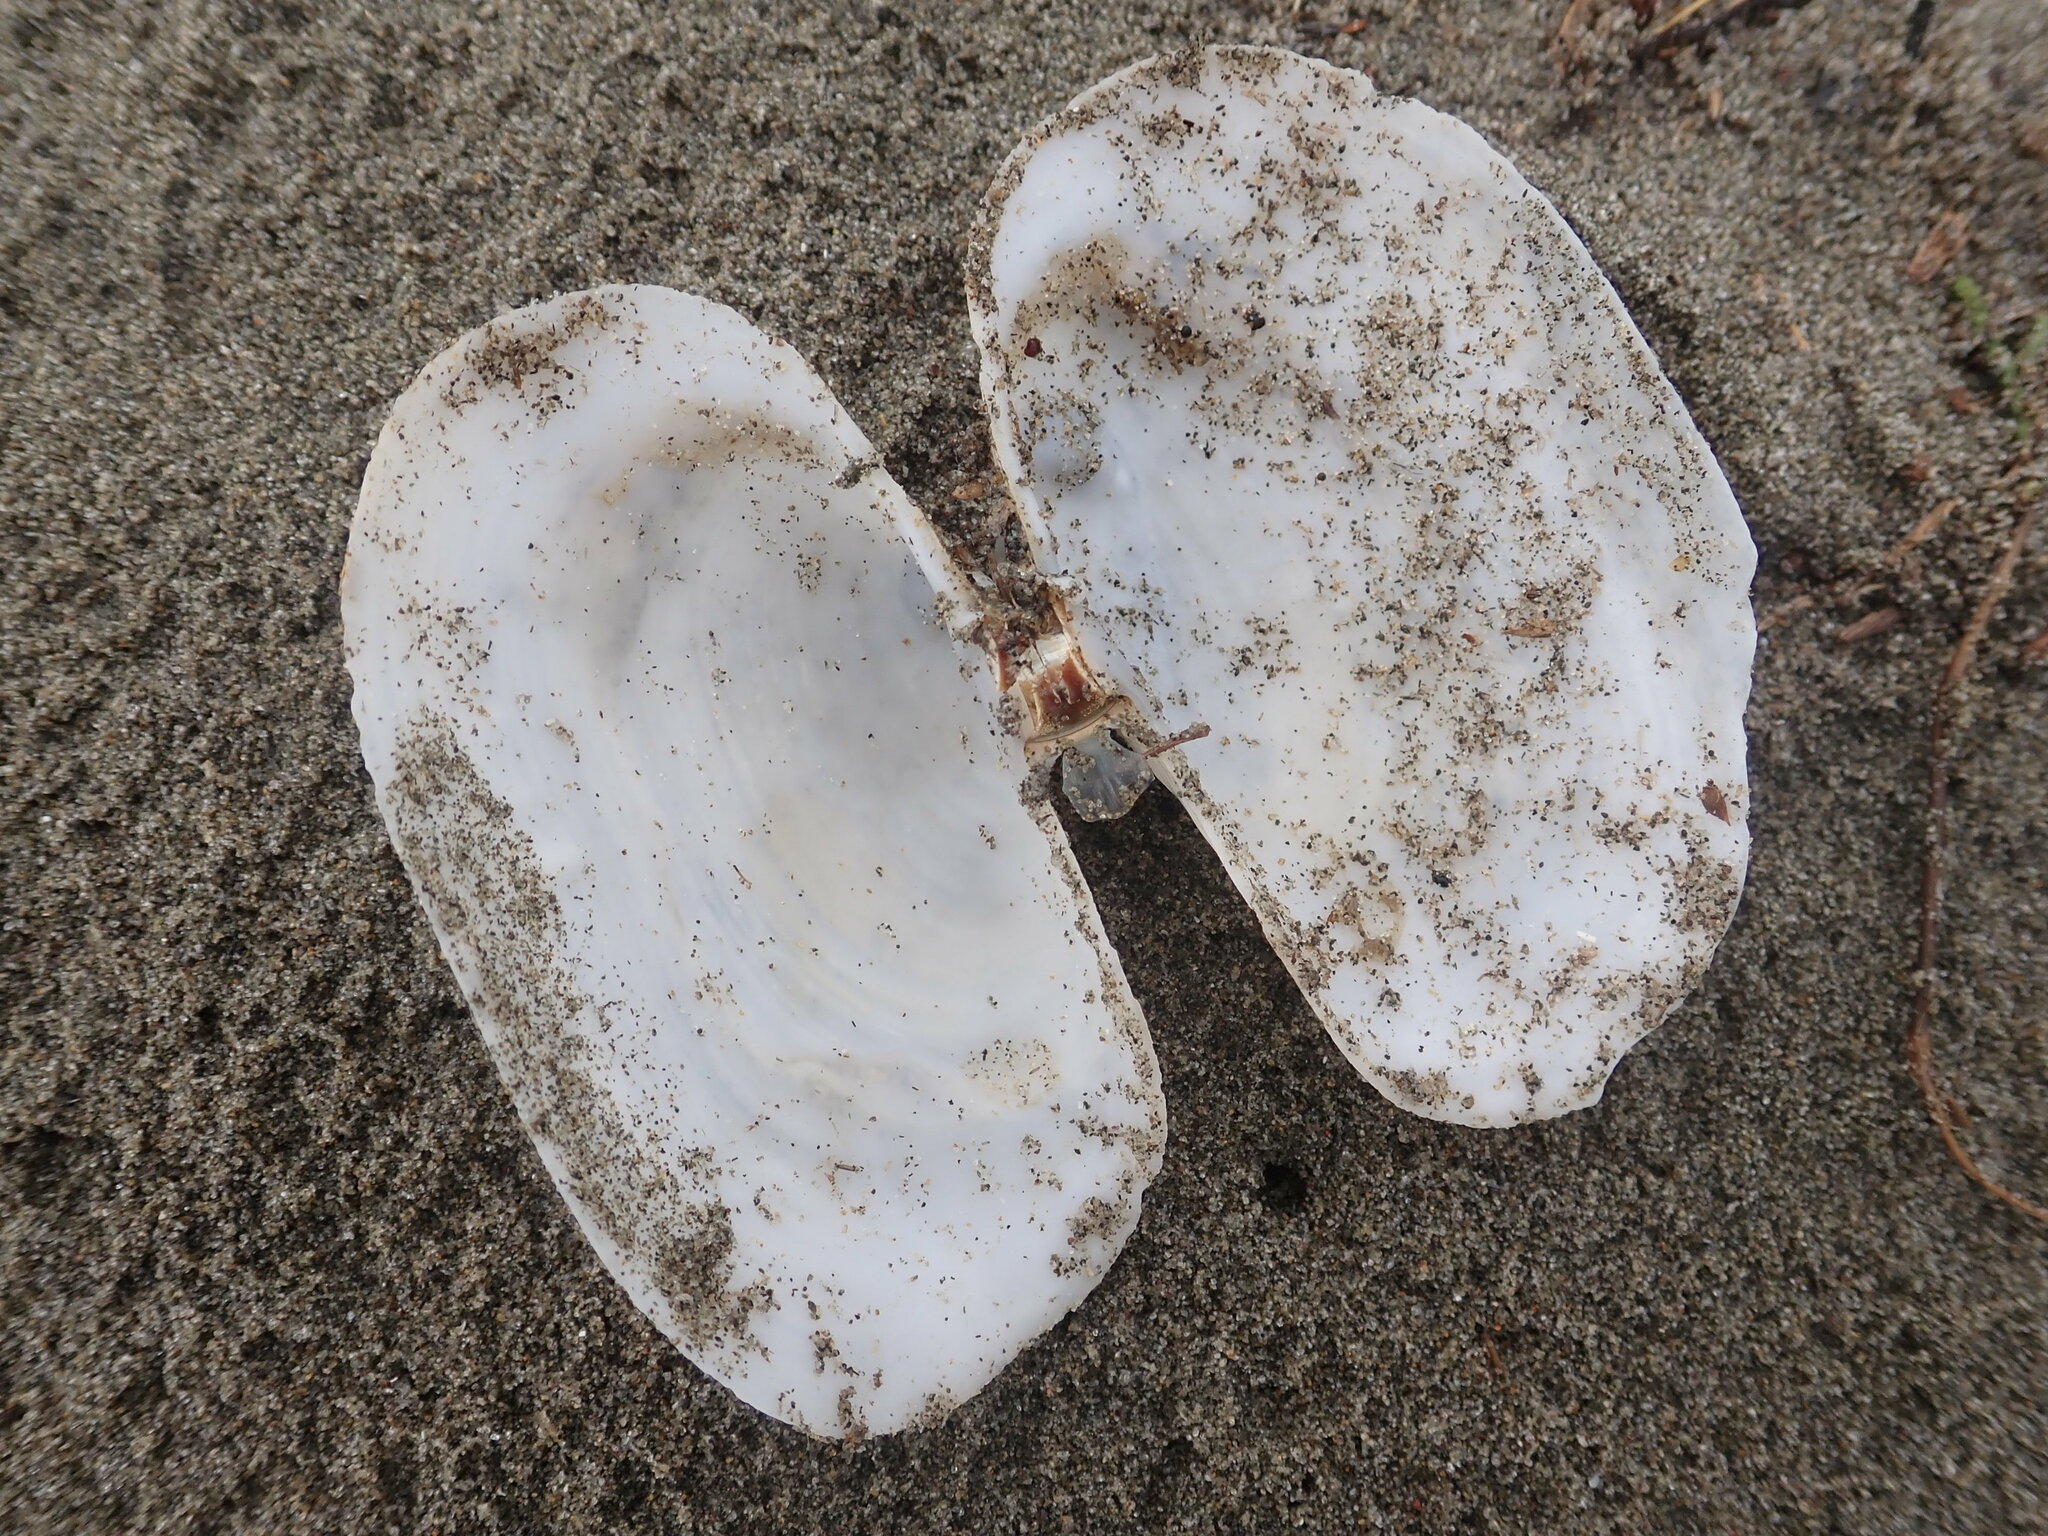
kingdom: Animalia
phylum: Mollusca
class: Bivalvia
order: Adapedonta
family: Hiatellidae
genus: Panopea
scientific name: Panopea zelandica
